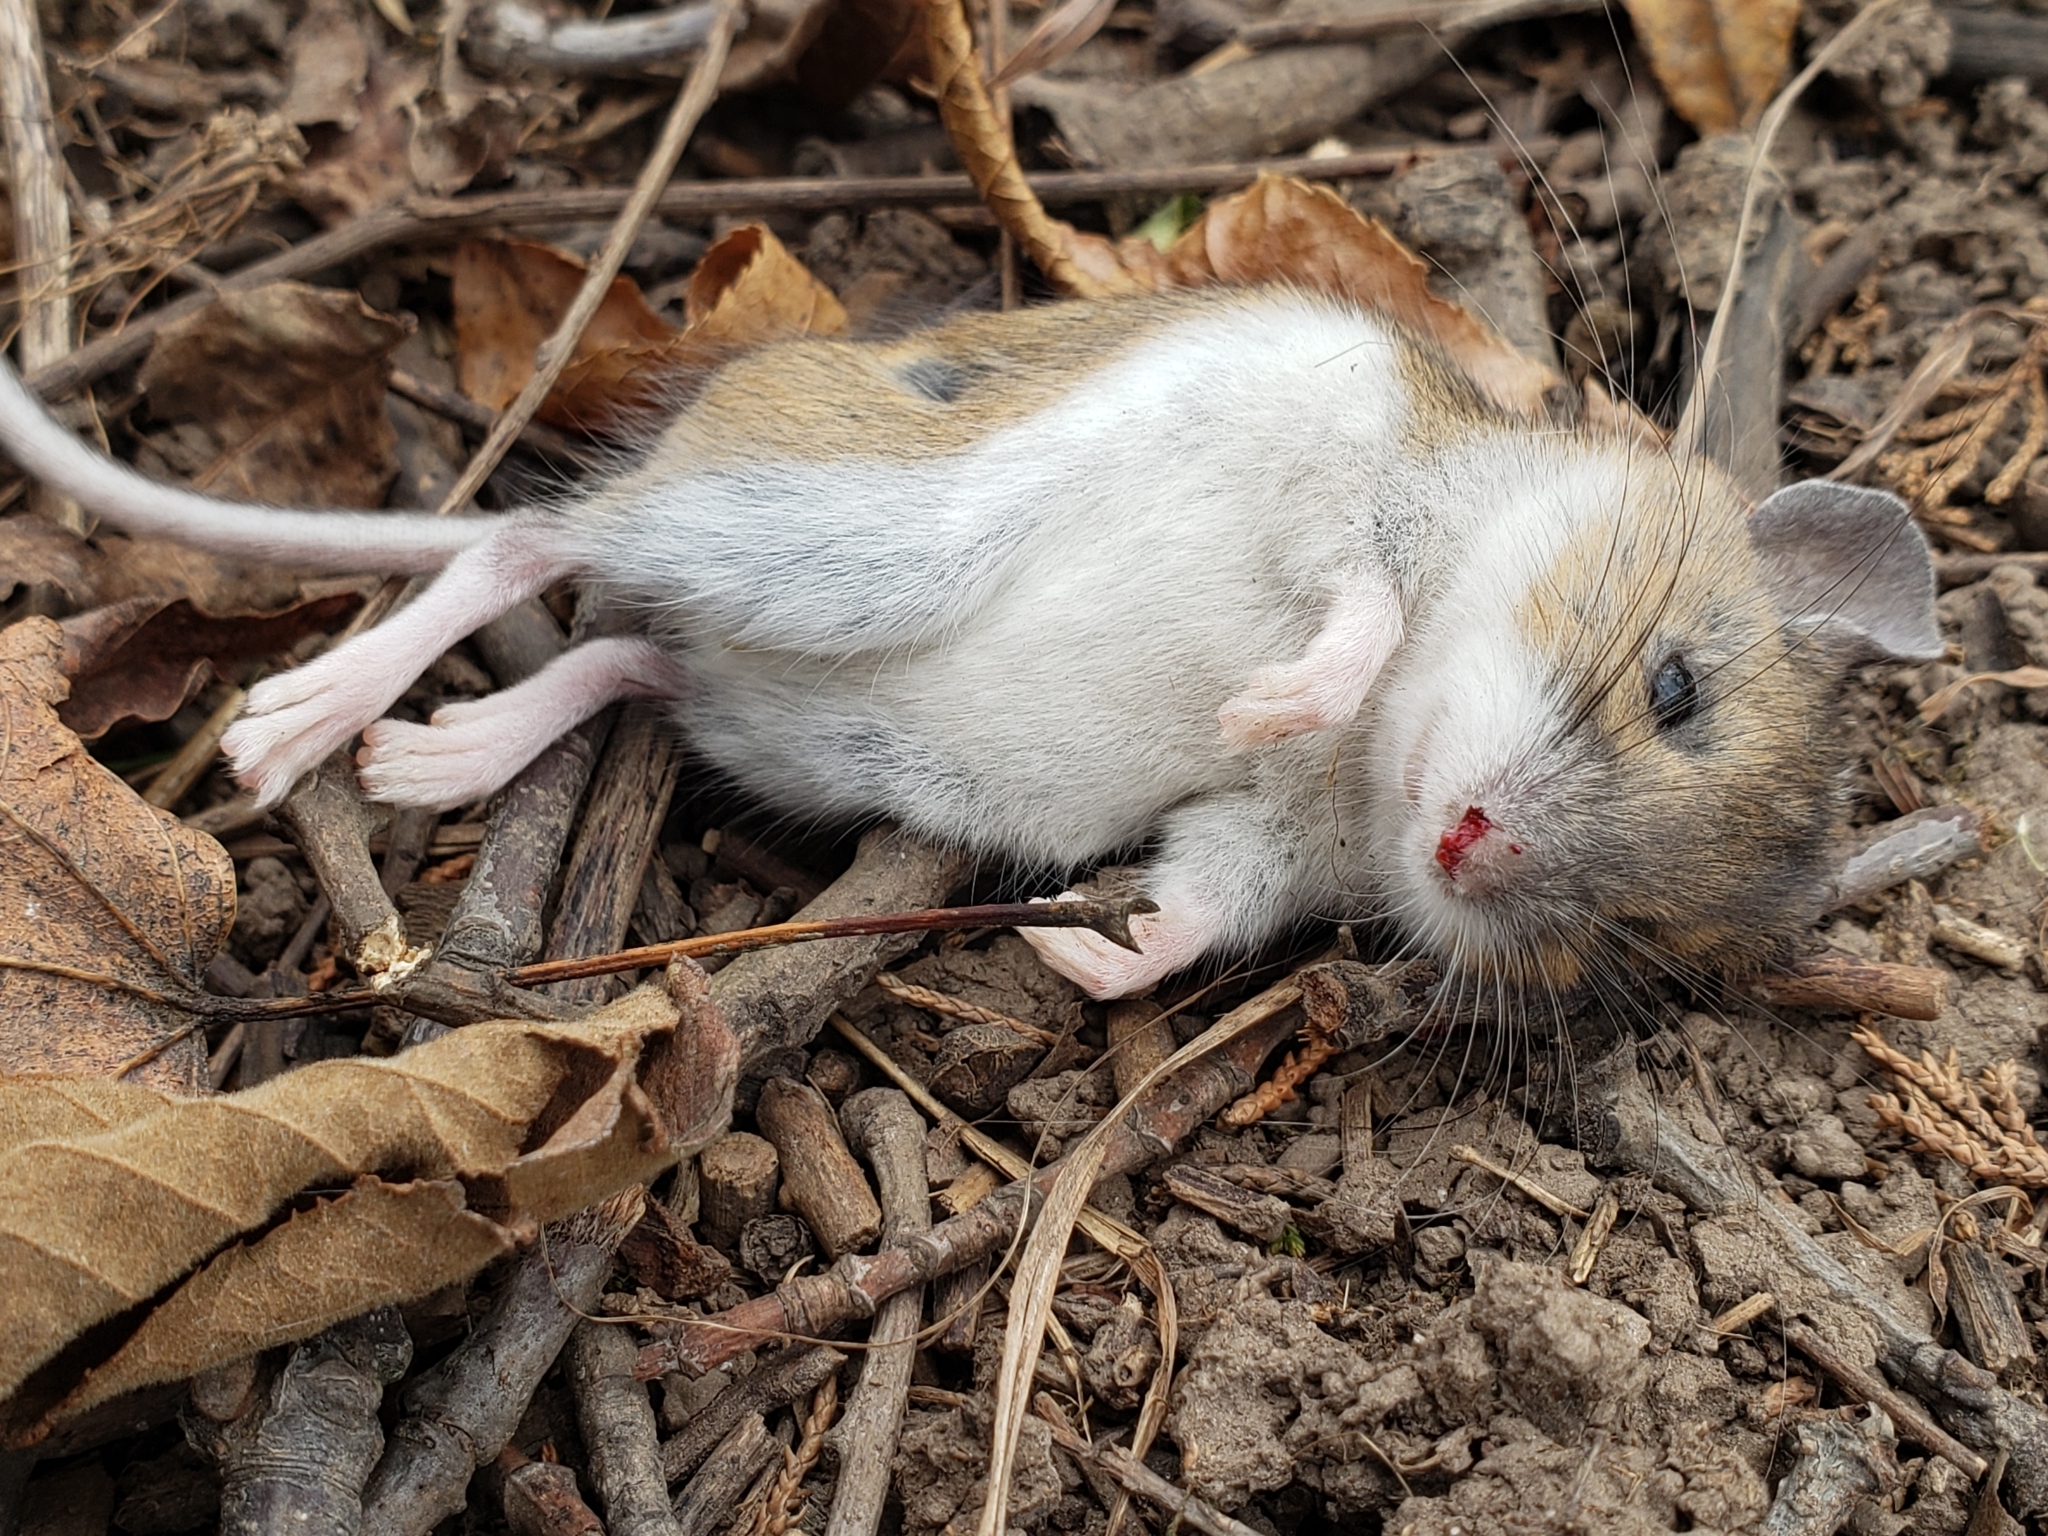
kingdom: Animalia
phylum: Chordata
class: Mammalia
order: Rodentia
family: Cricetidae
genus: Peromyscus
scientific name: Peromyscus
